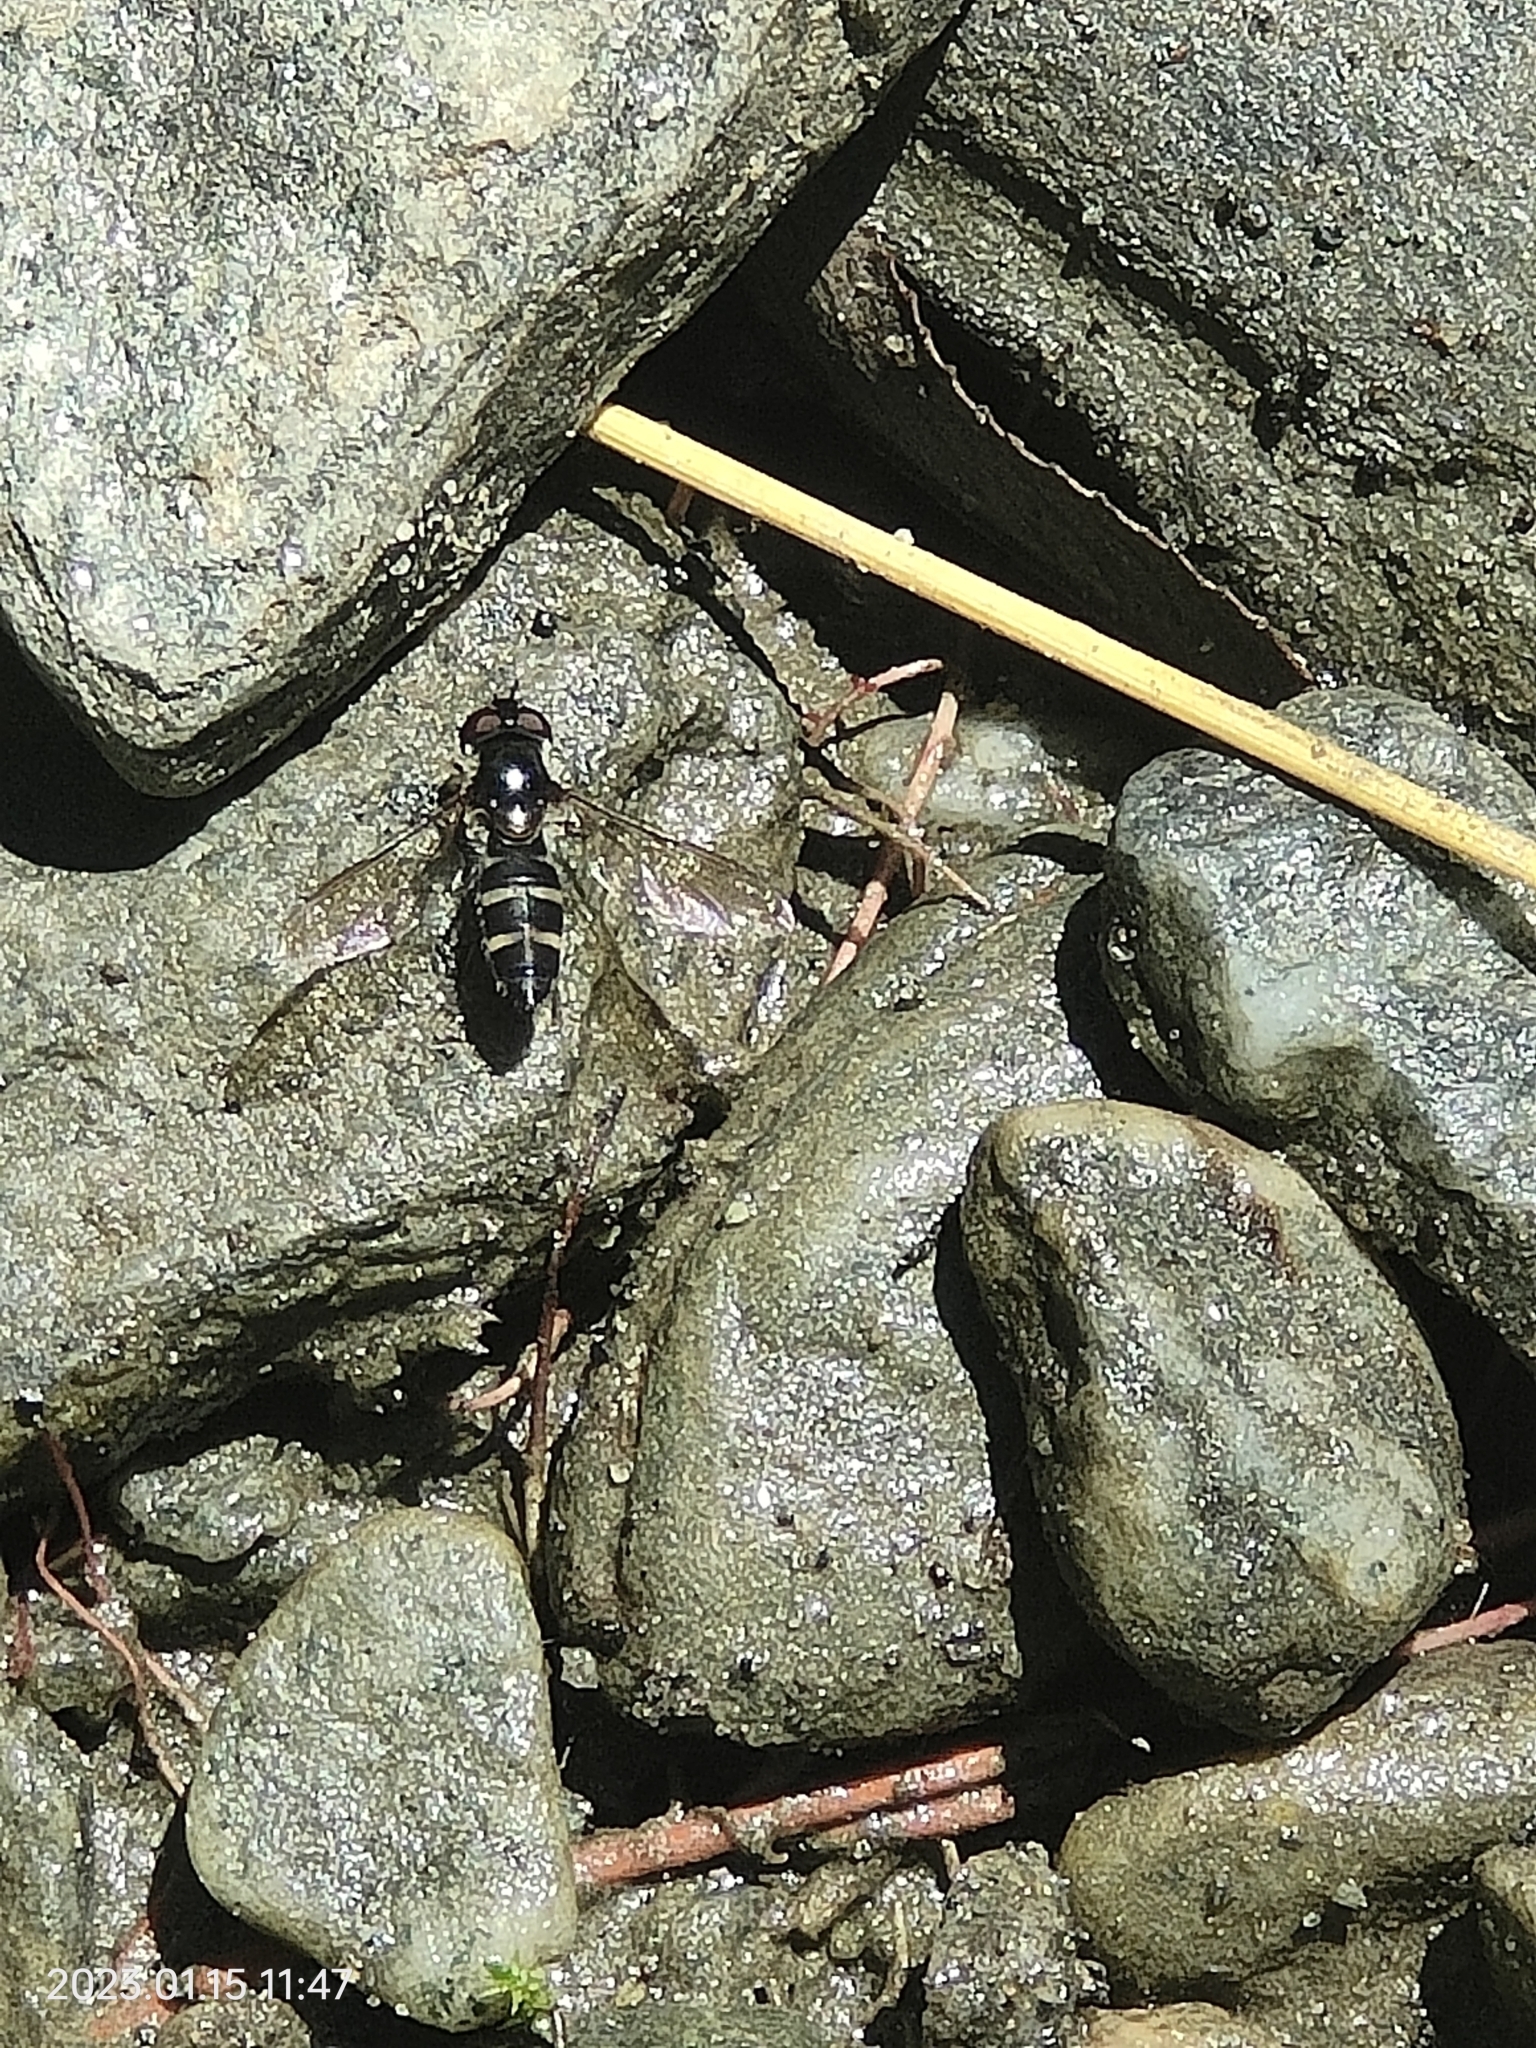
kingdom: Animalia
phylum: Arthropoda
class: Insecta
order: Diptera
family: Syrphidae
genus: Melangyna
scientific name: Melangyna novaezelandiae
